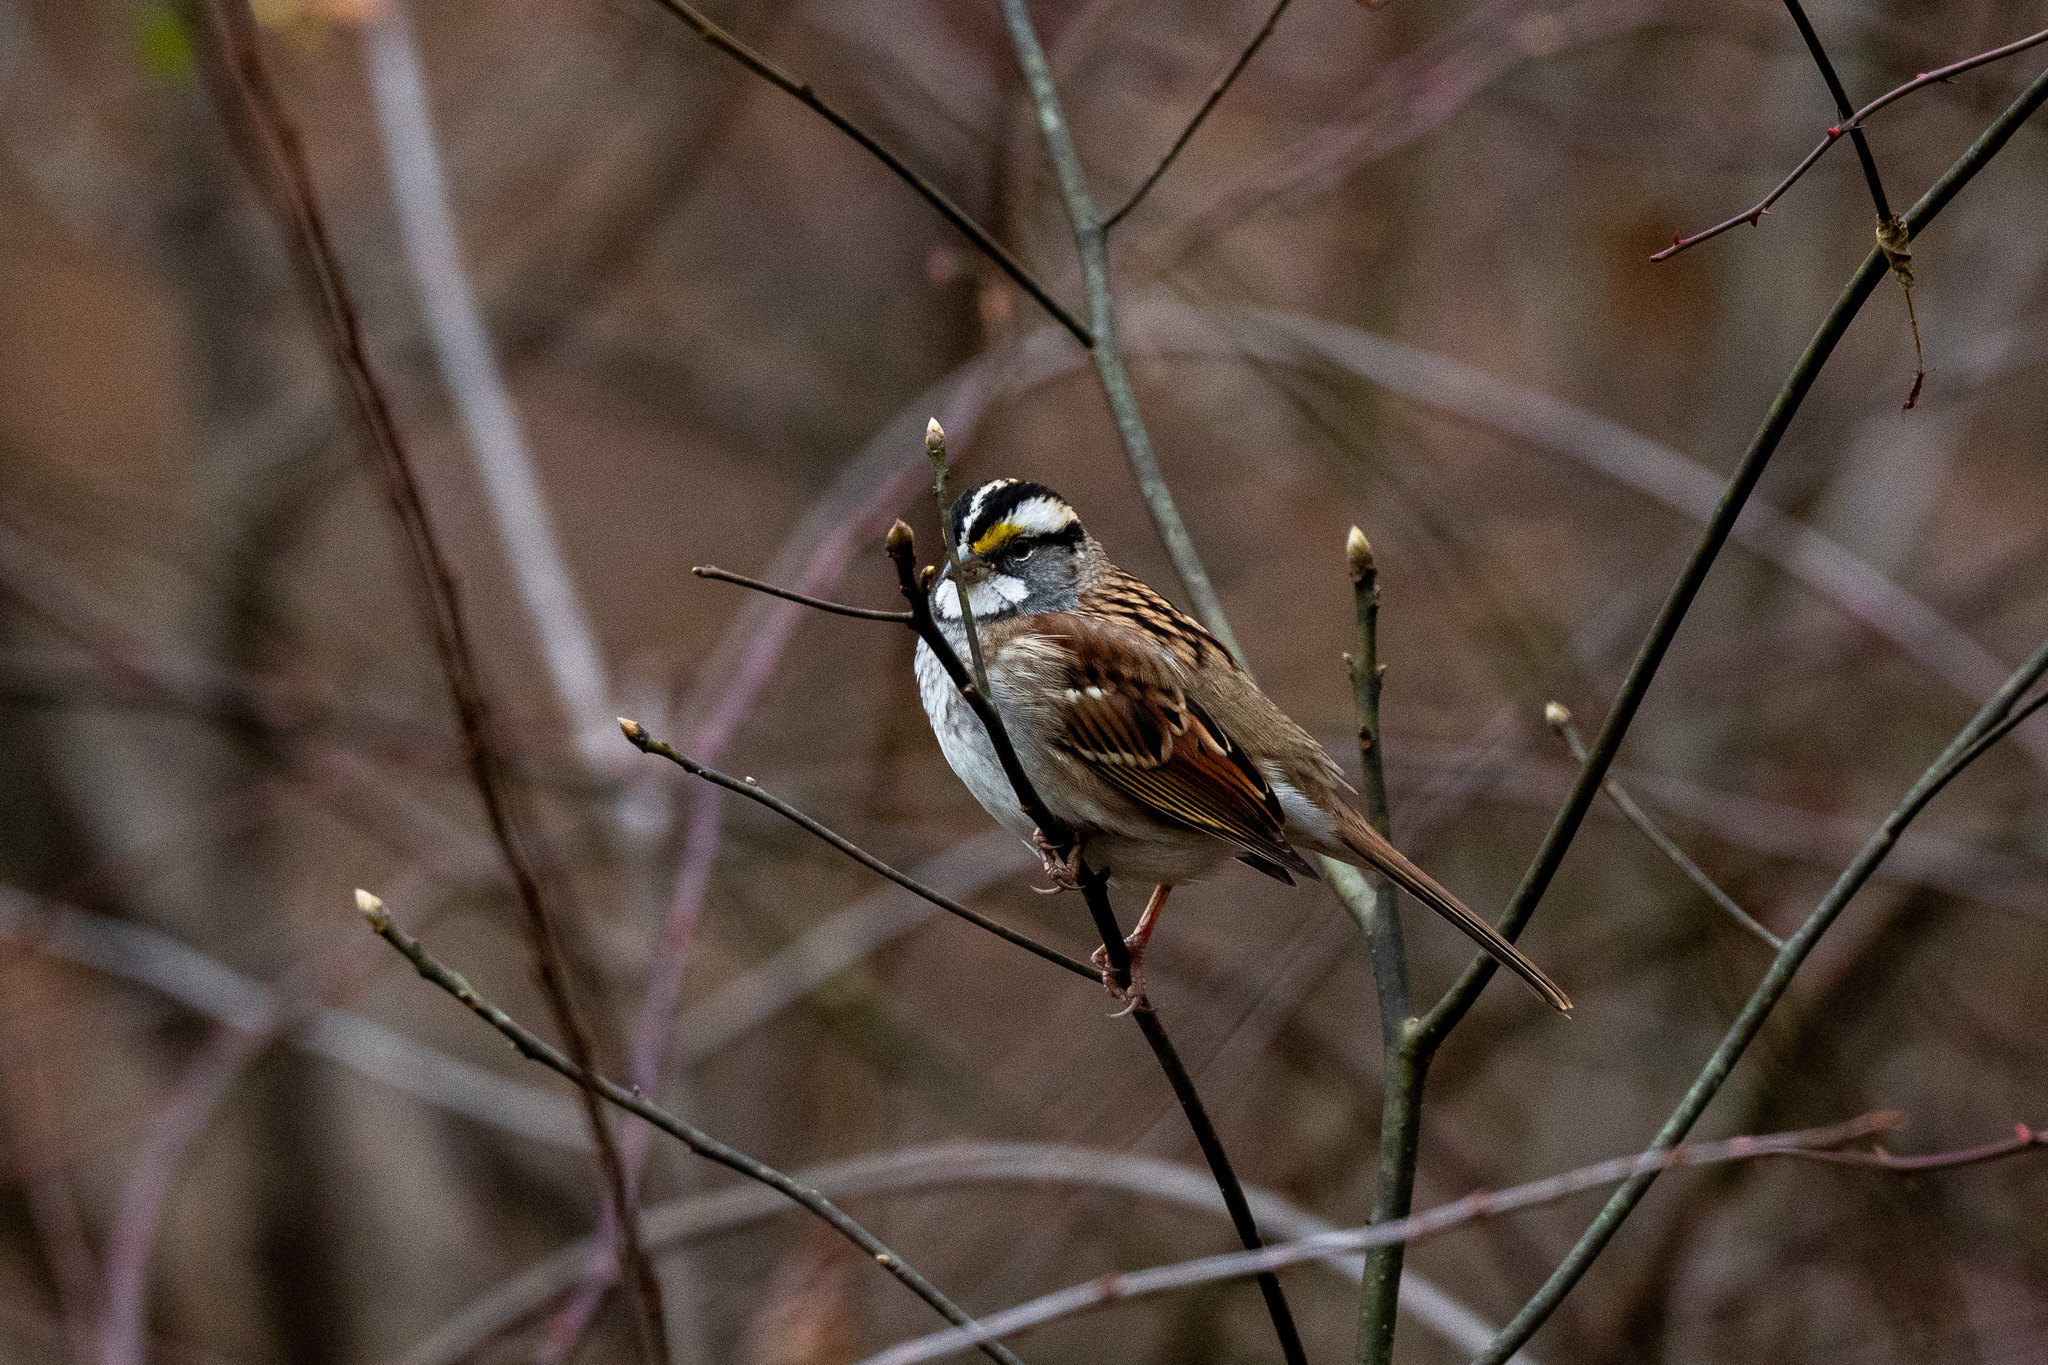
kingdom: Animalia
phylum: Chordata
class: Aves
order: Passeriformes
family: Passerellidae
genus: Zonotrichia
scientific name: Zonotrichia albicollis
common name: White-throated sparrow
